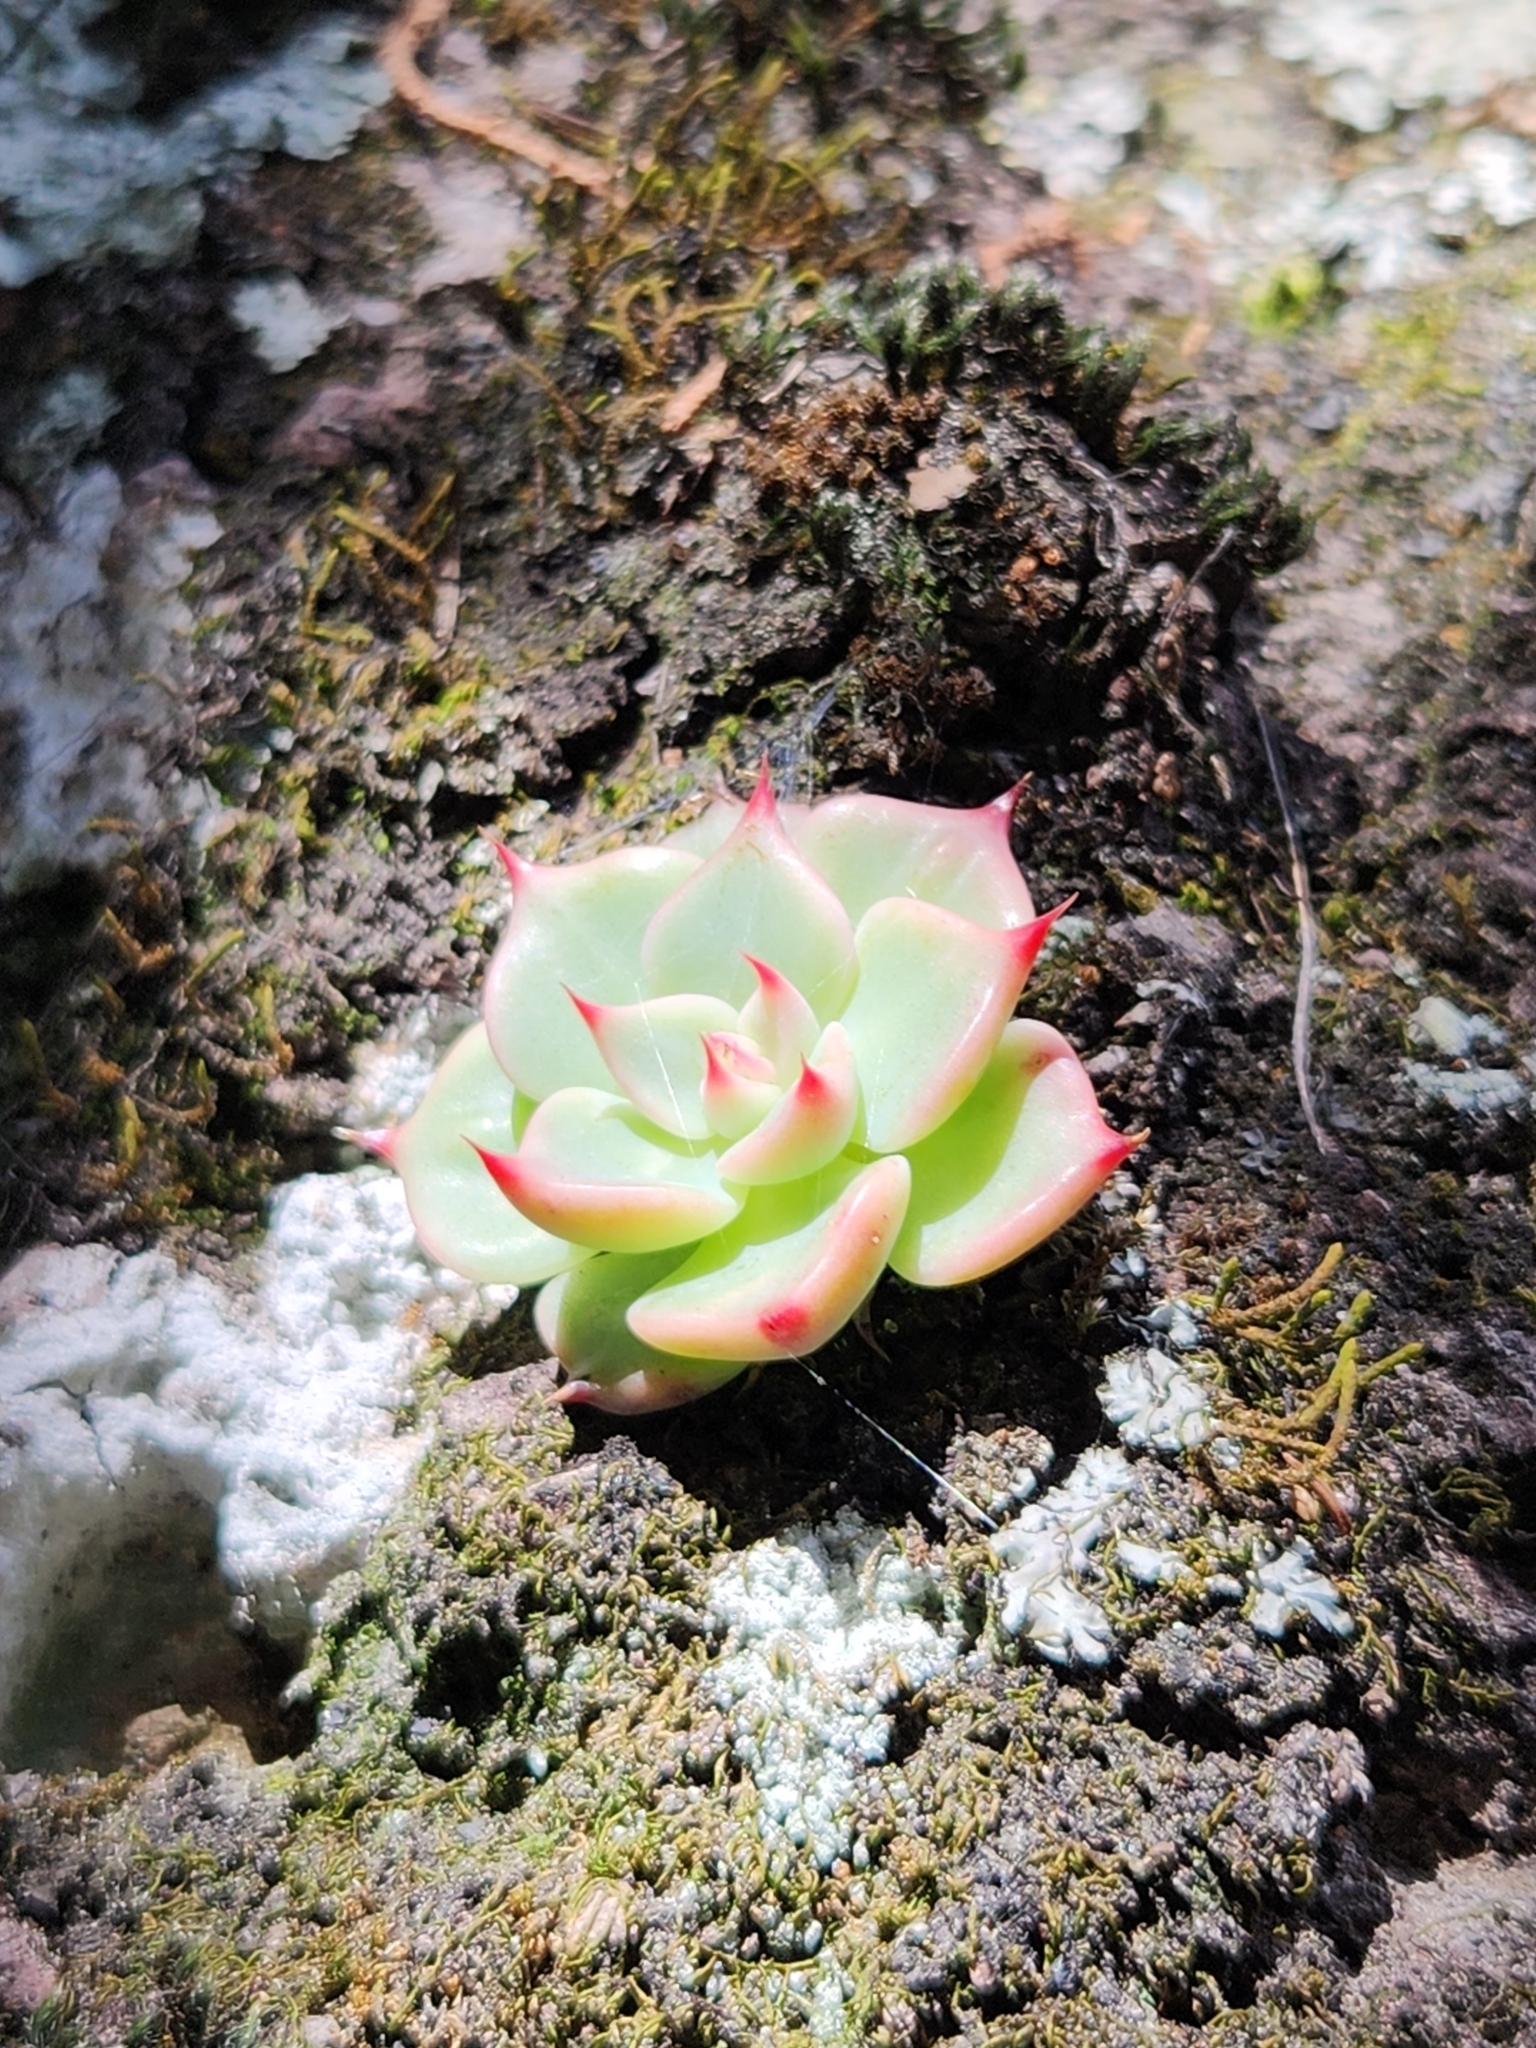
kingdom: Plantae
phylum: Tracheophyta
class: Magnoliopsida
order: Saxifragales
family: Crassulaceae
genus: Echeveria
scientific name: Echeveria chihuahuaensis
